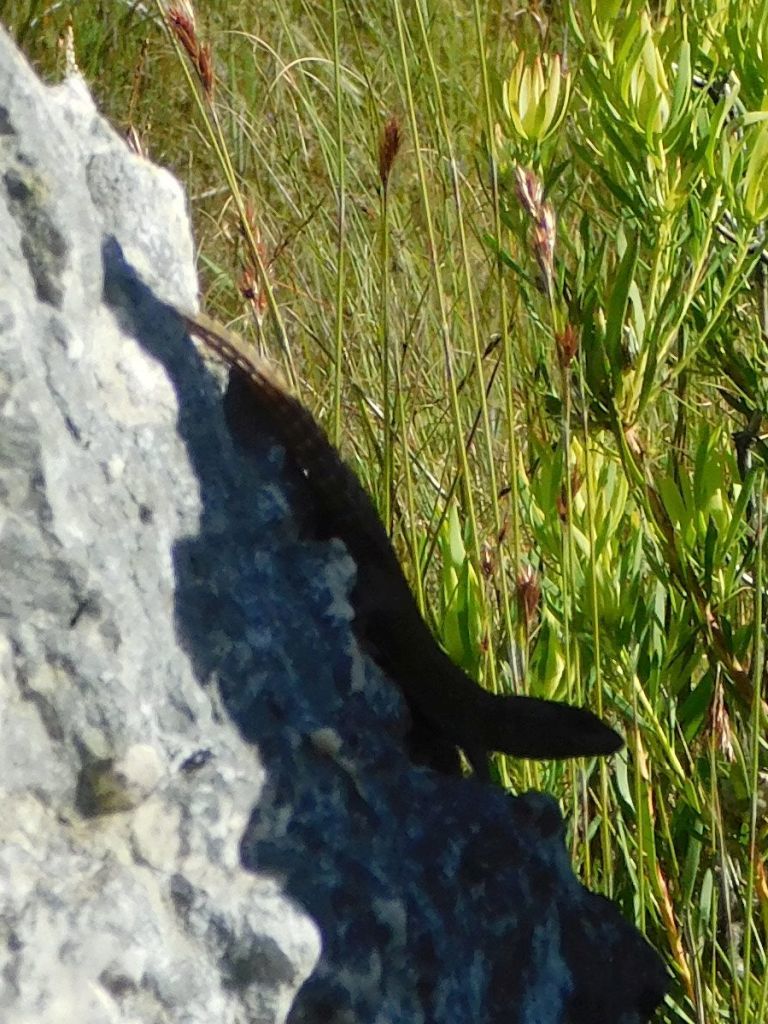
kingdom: Animalia
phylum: Chordata
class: Squamata
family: Cordylidae
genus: Cordylus
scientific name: Cordylus cordylus
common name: Cape girdled lizard
